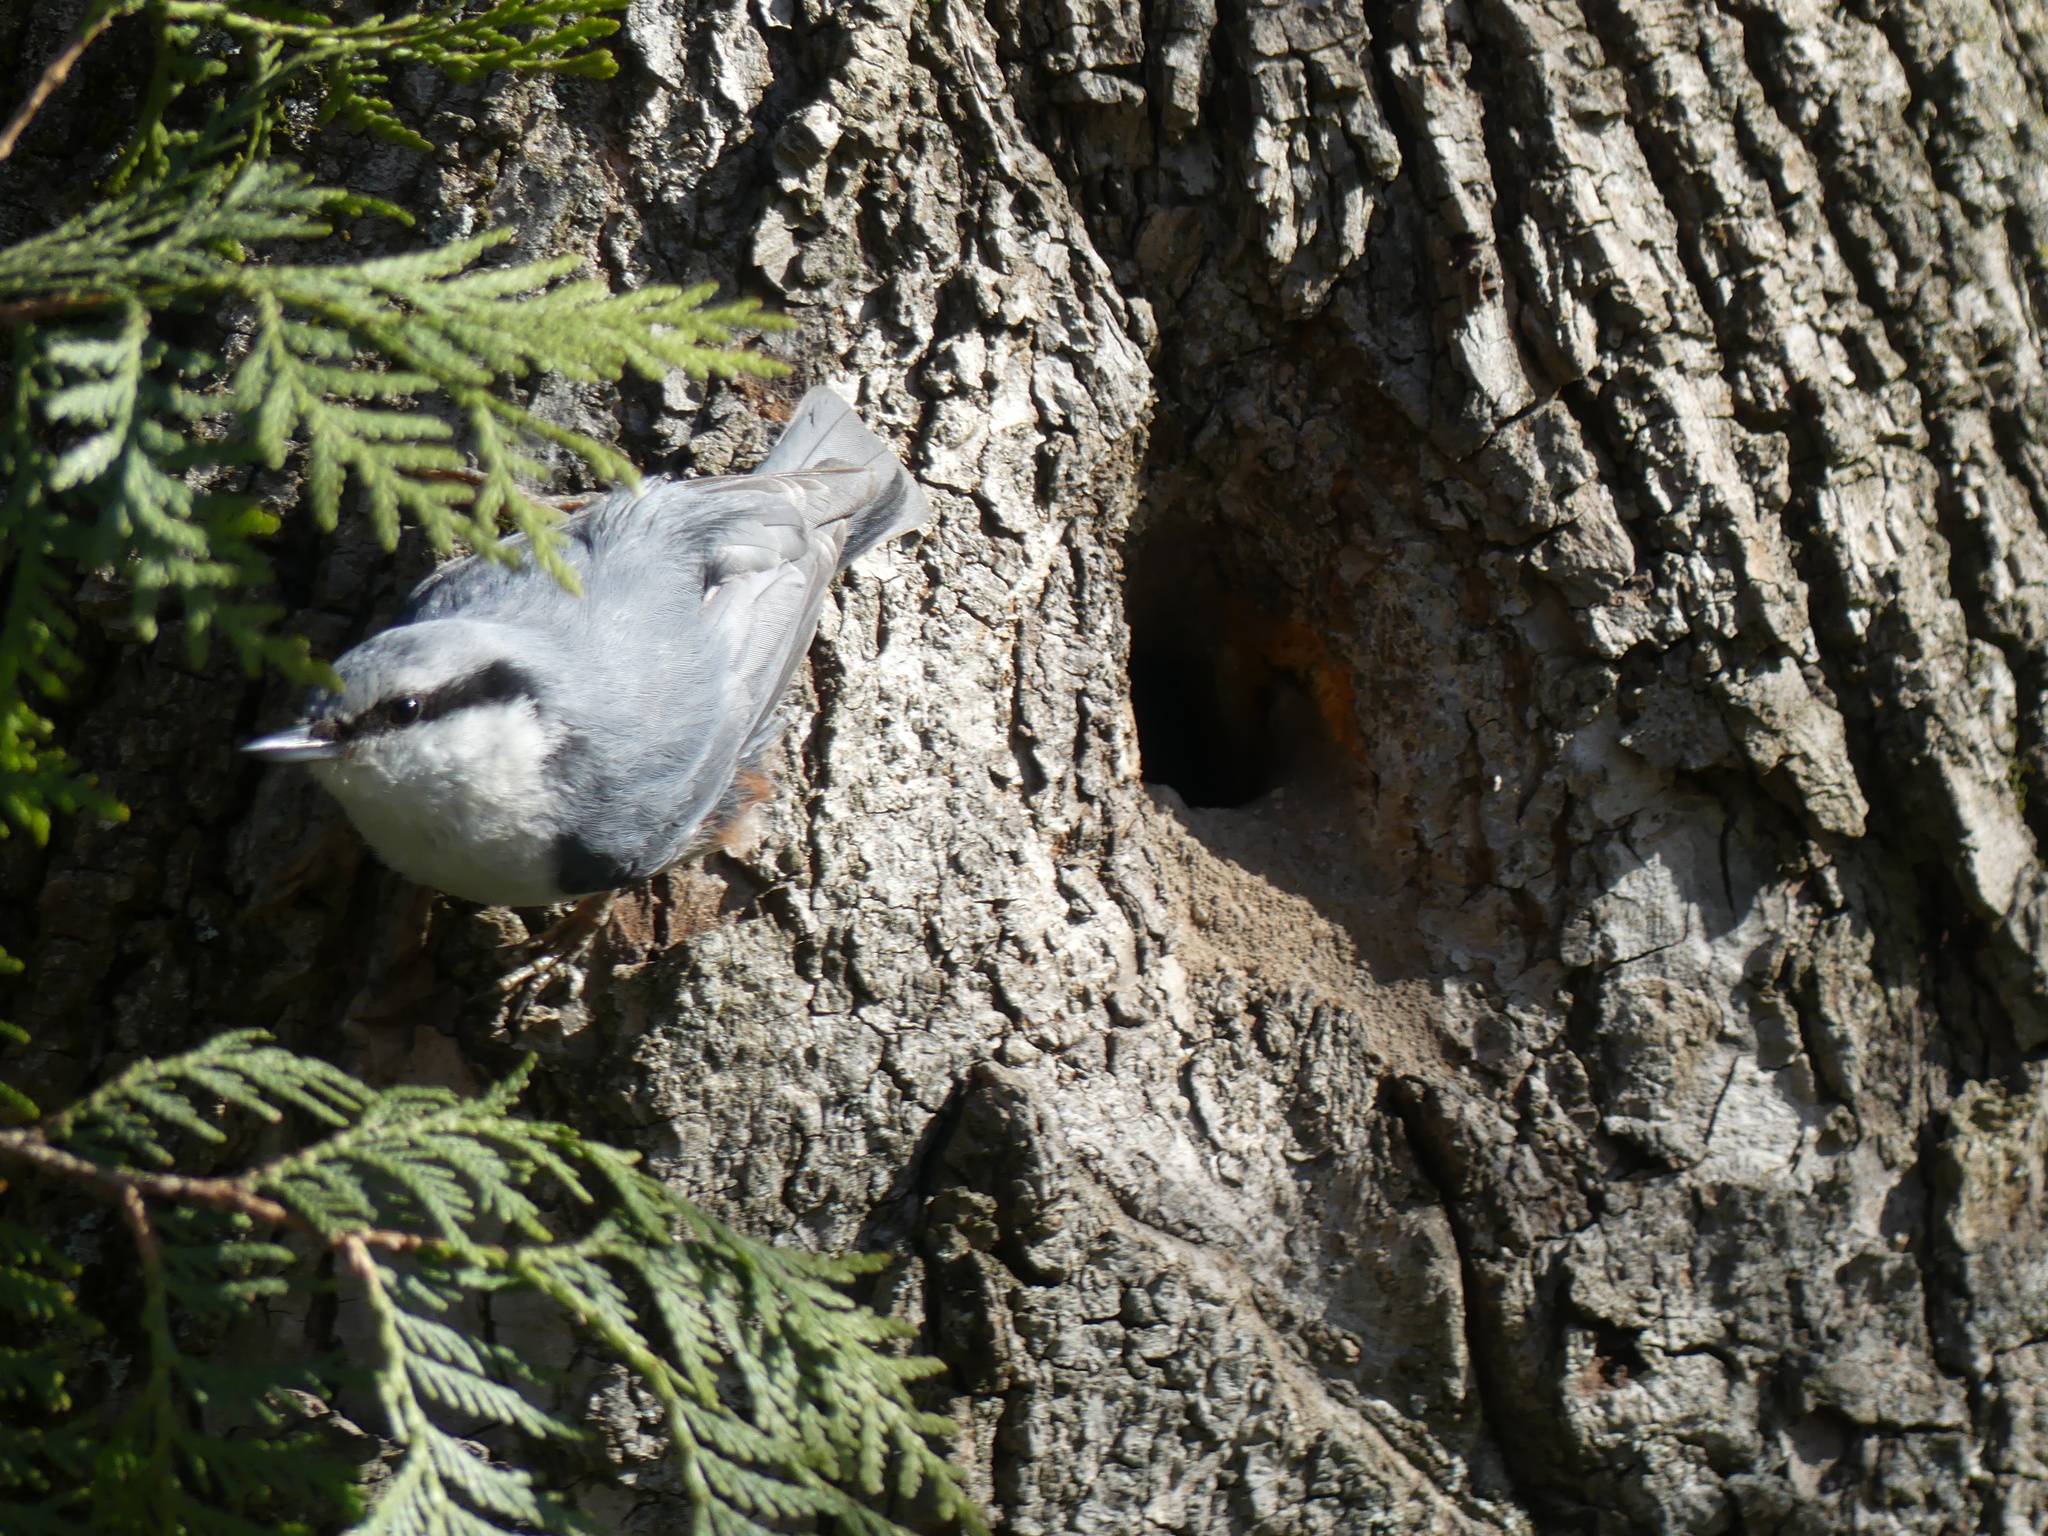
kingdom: Animalia
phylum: Chordata
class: Aves
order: Passeriformes
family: Sittidae
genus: Sitta
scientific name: Sitta europaea
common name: Eurasian nuthatch
